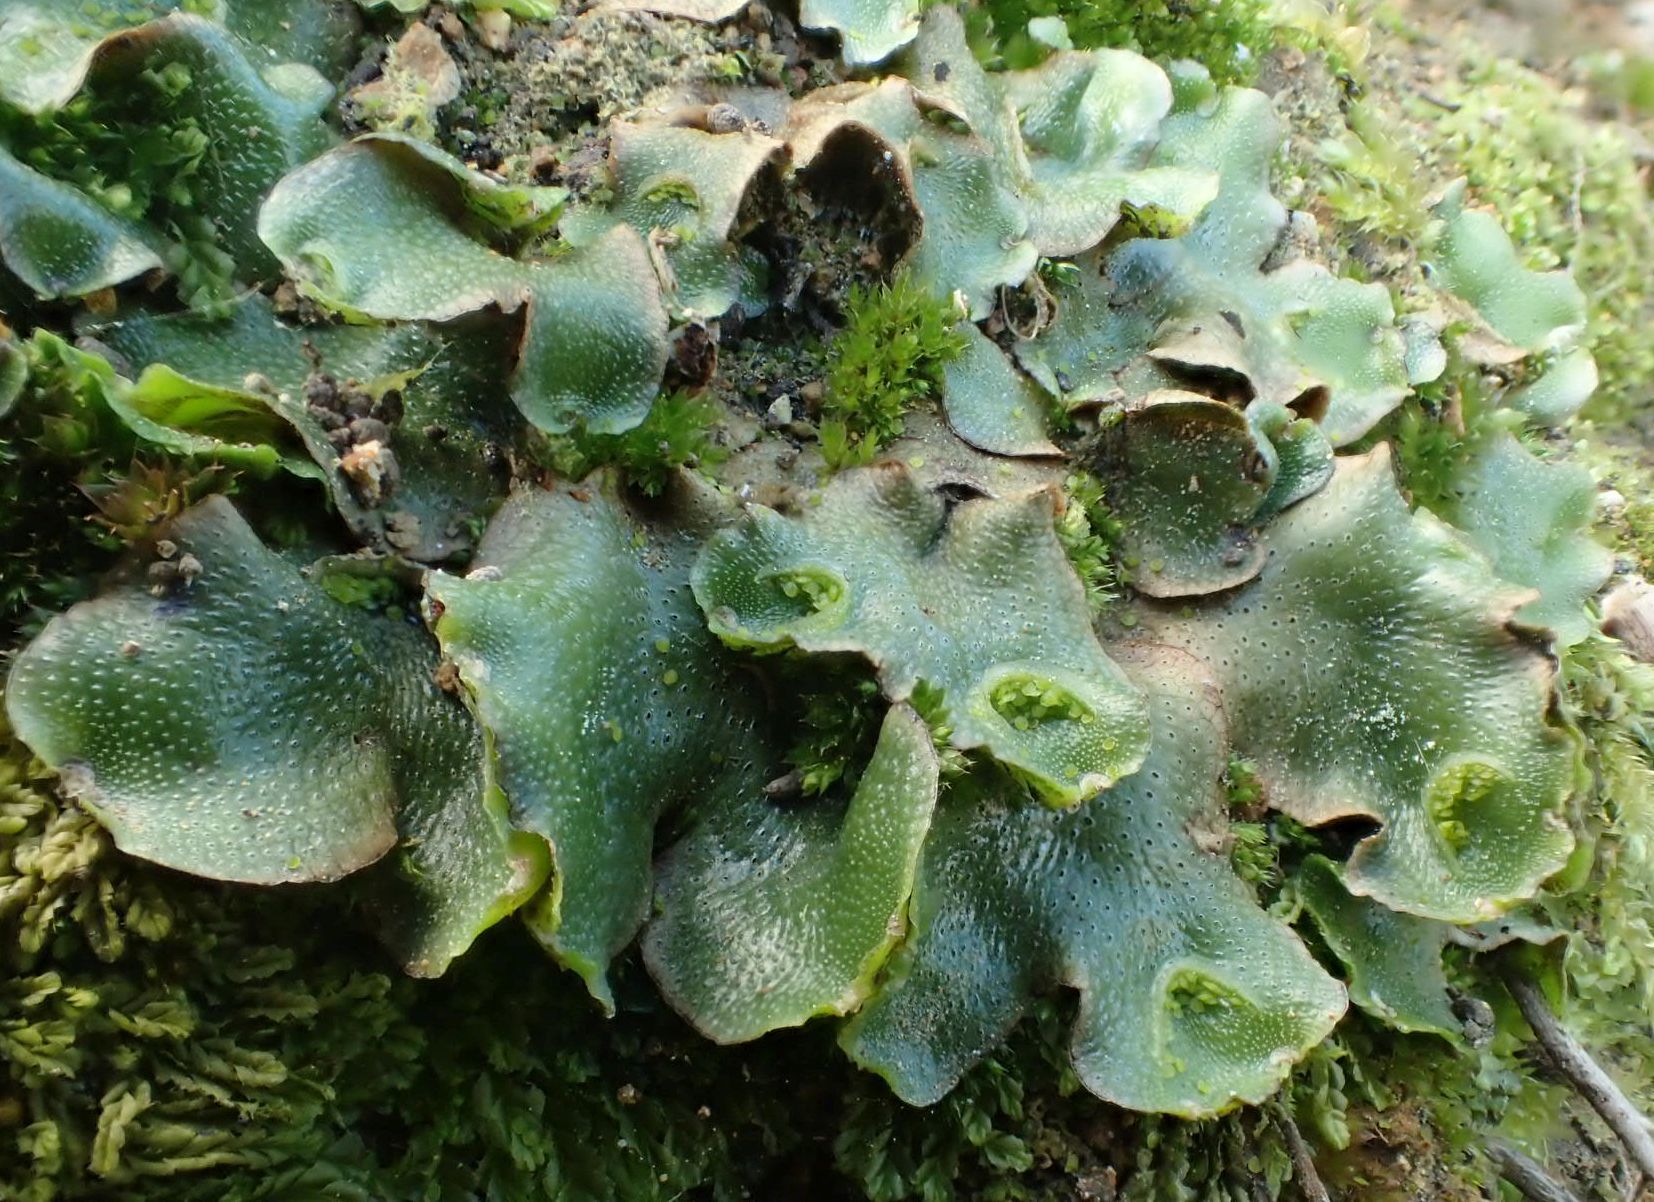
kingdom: Plantae
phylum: Marchantiophyta
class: Marchantiopsida
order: Lunulariales
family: Lunulariaceae
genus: Lunularia
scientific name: Lunularia cruciata
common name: Crescent-cup liverwort
